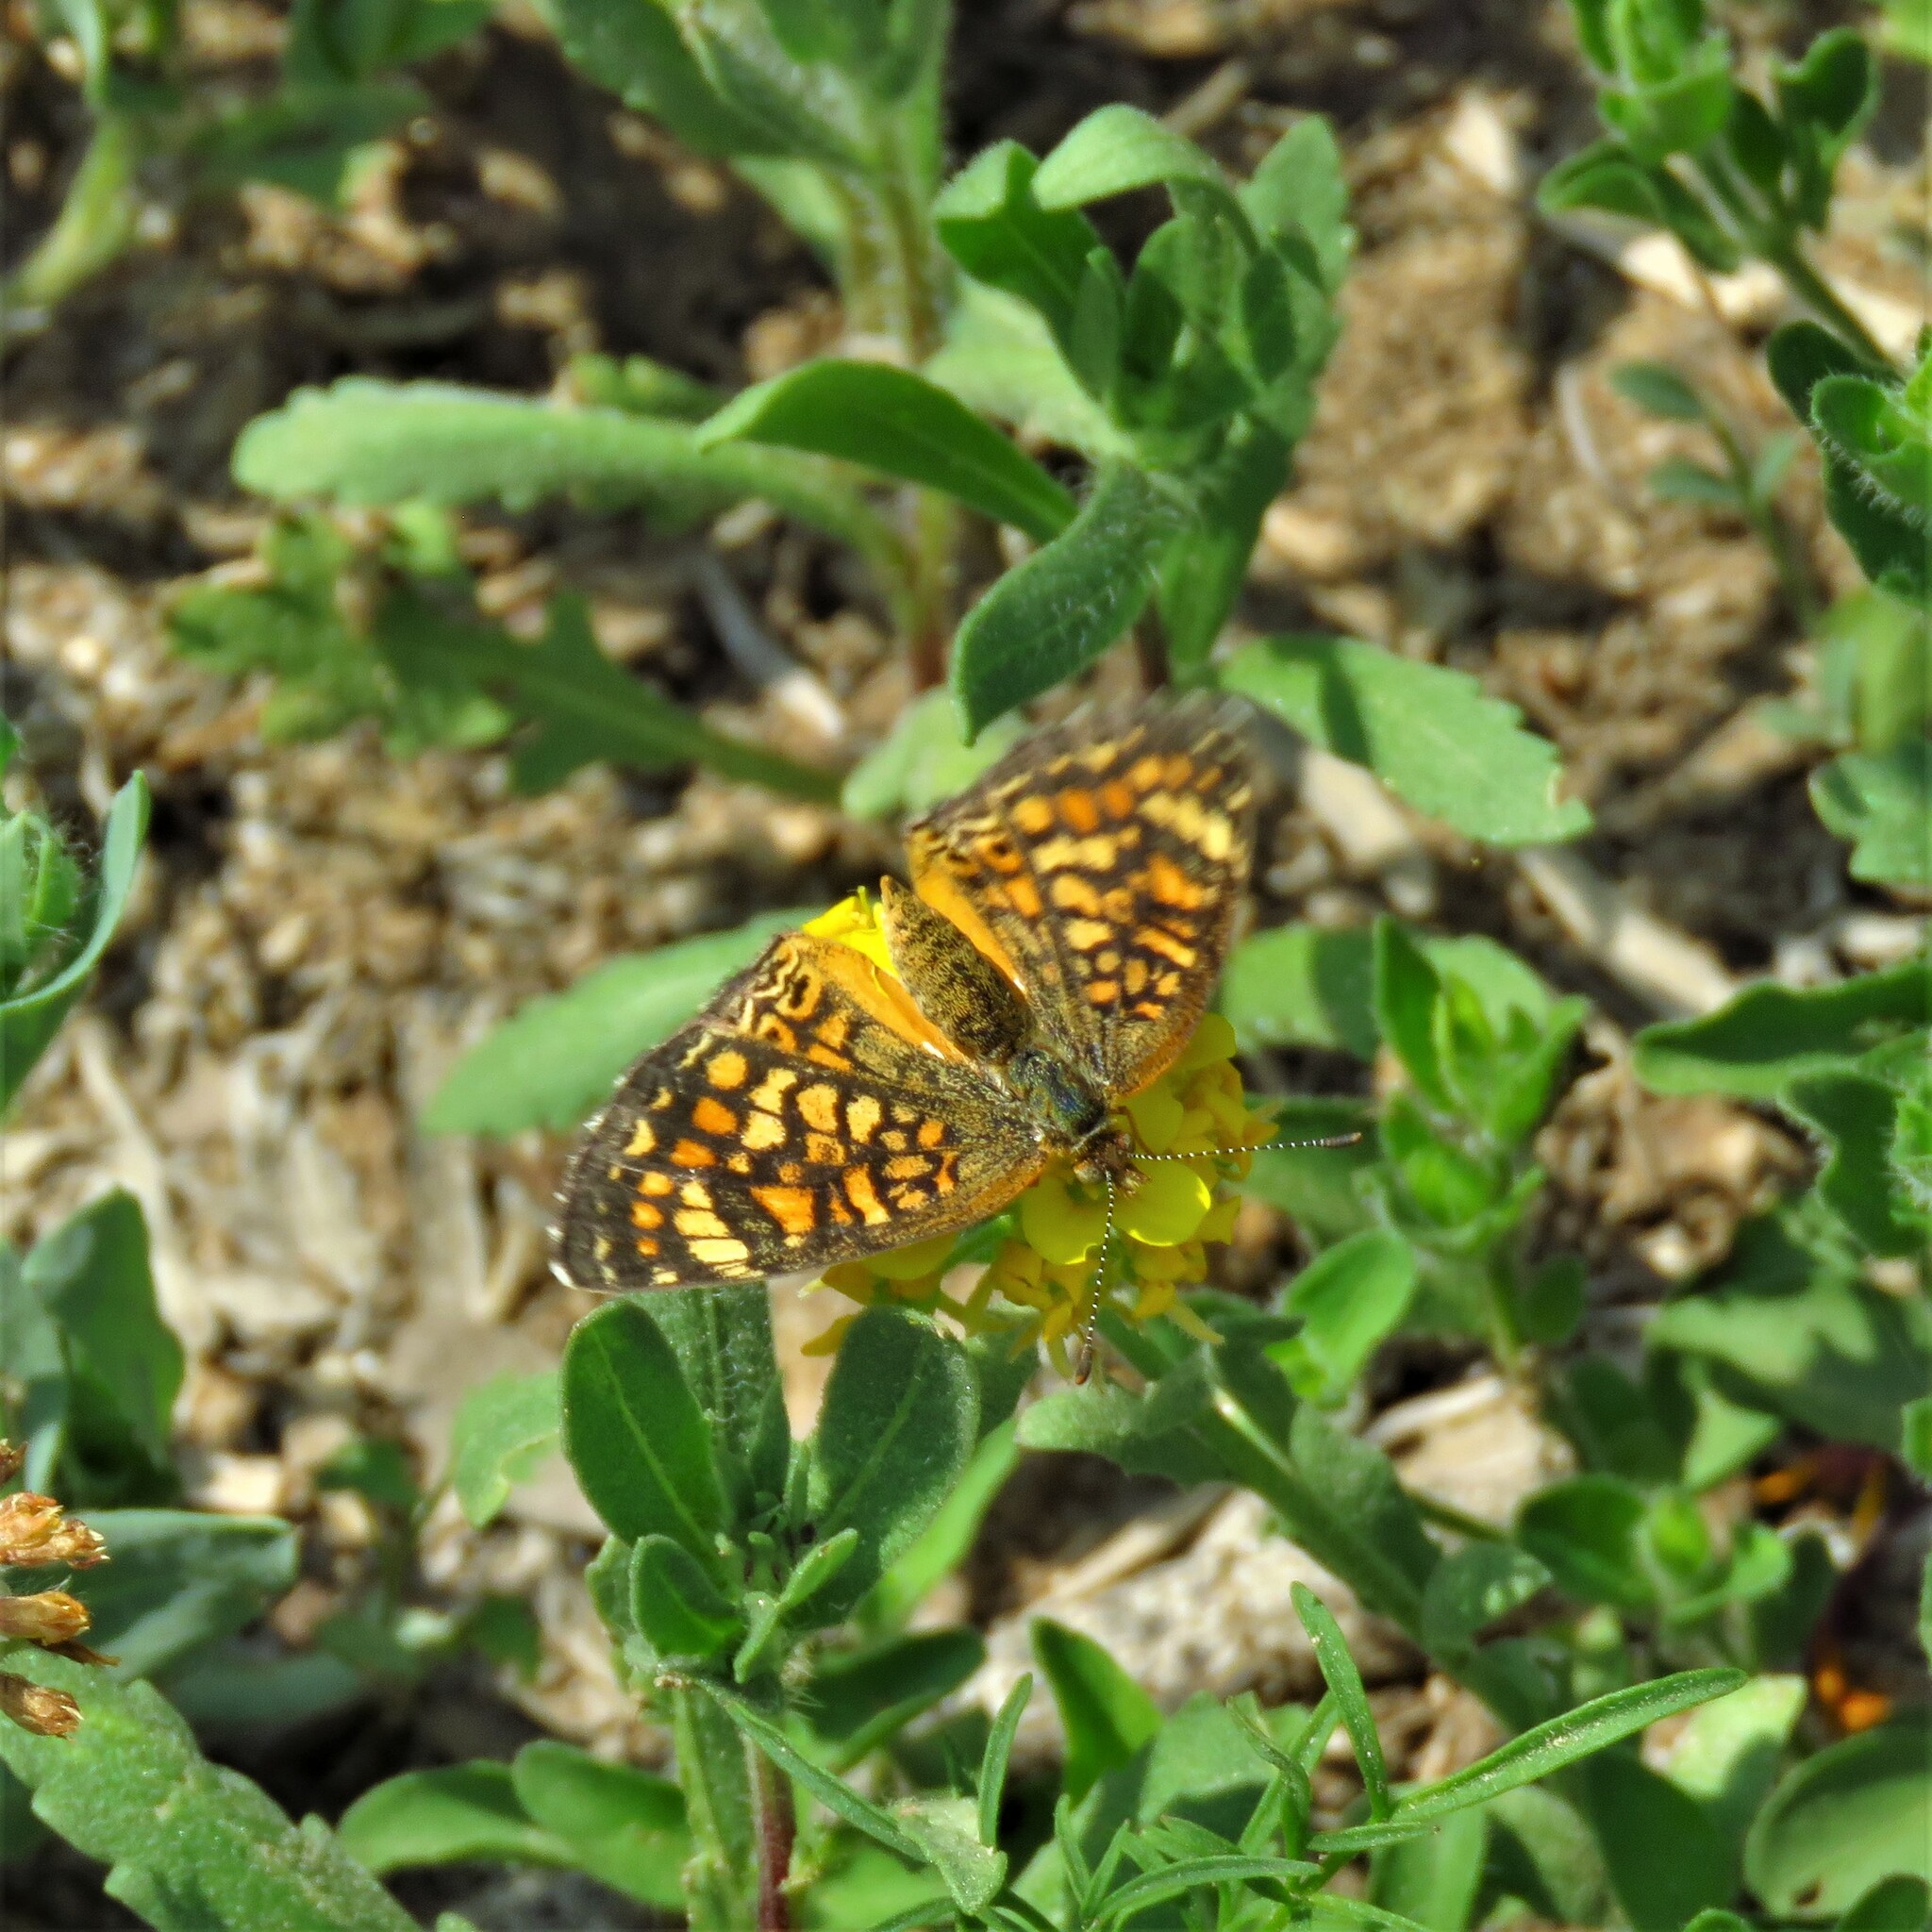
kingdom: Animalia
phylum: Arthropoda
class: Insecta
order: Lepidoptera
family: Nymphalidae
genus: Phyciodes
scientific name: Phyciodes vesta
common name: Vesta crescent
